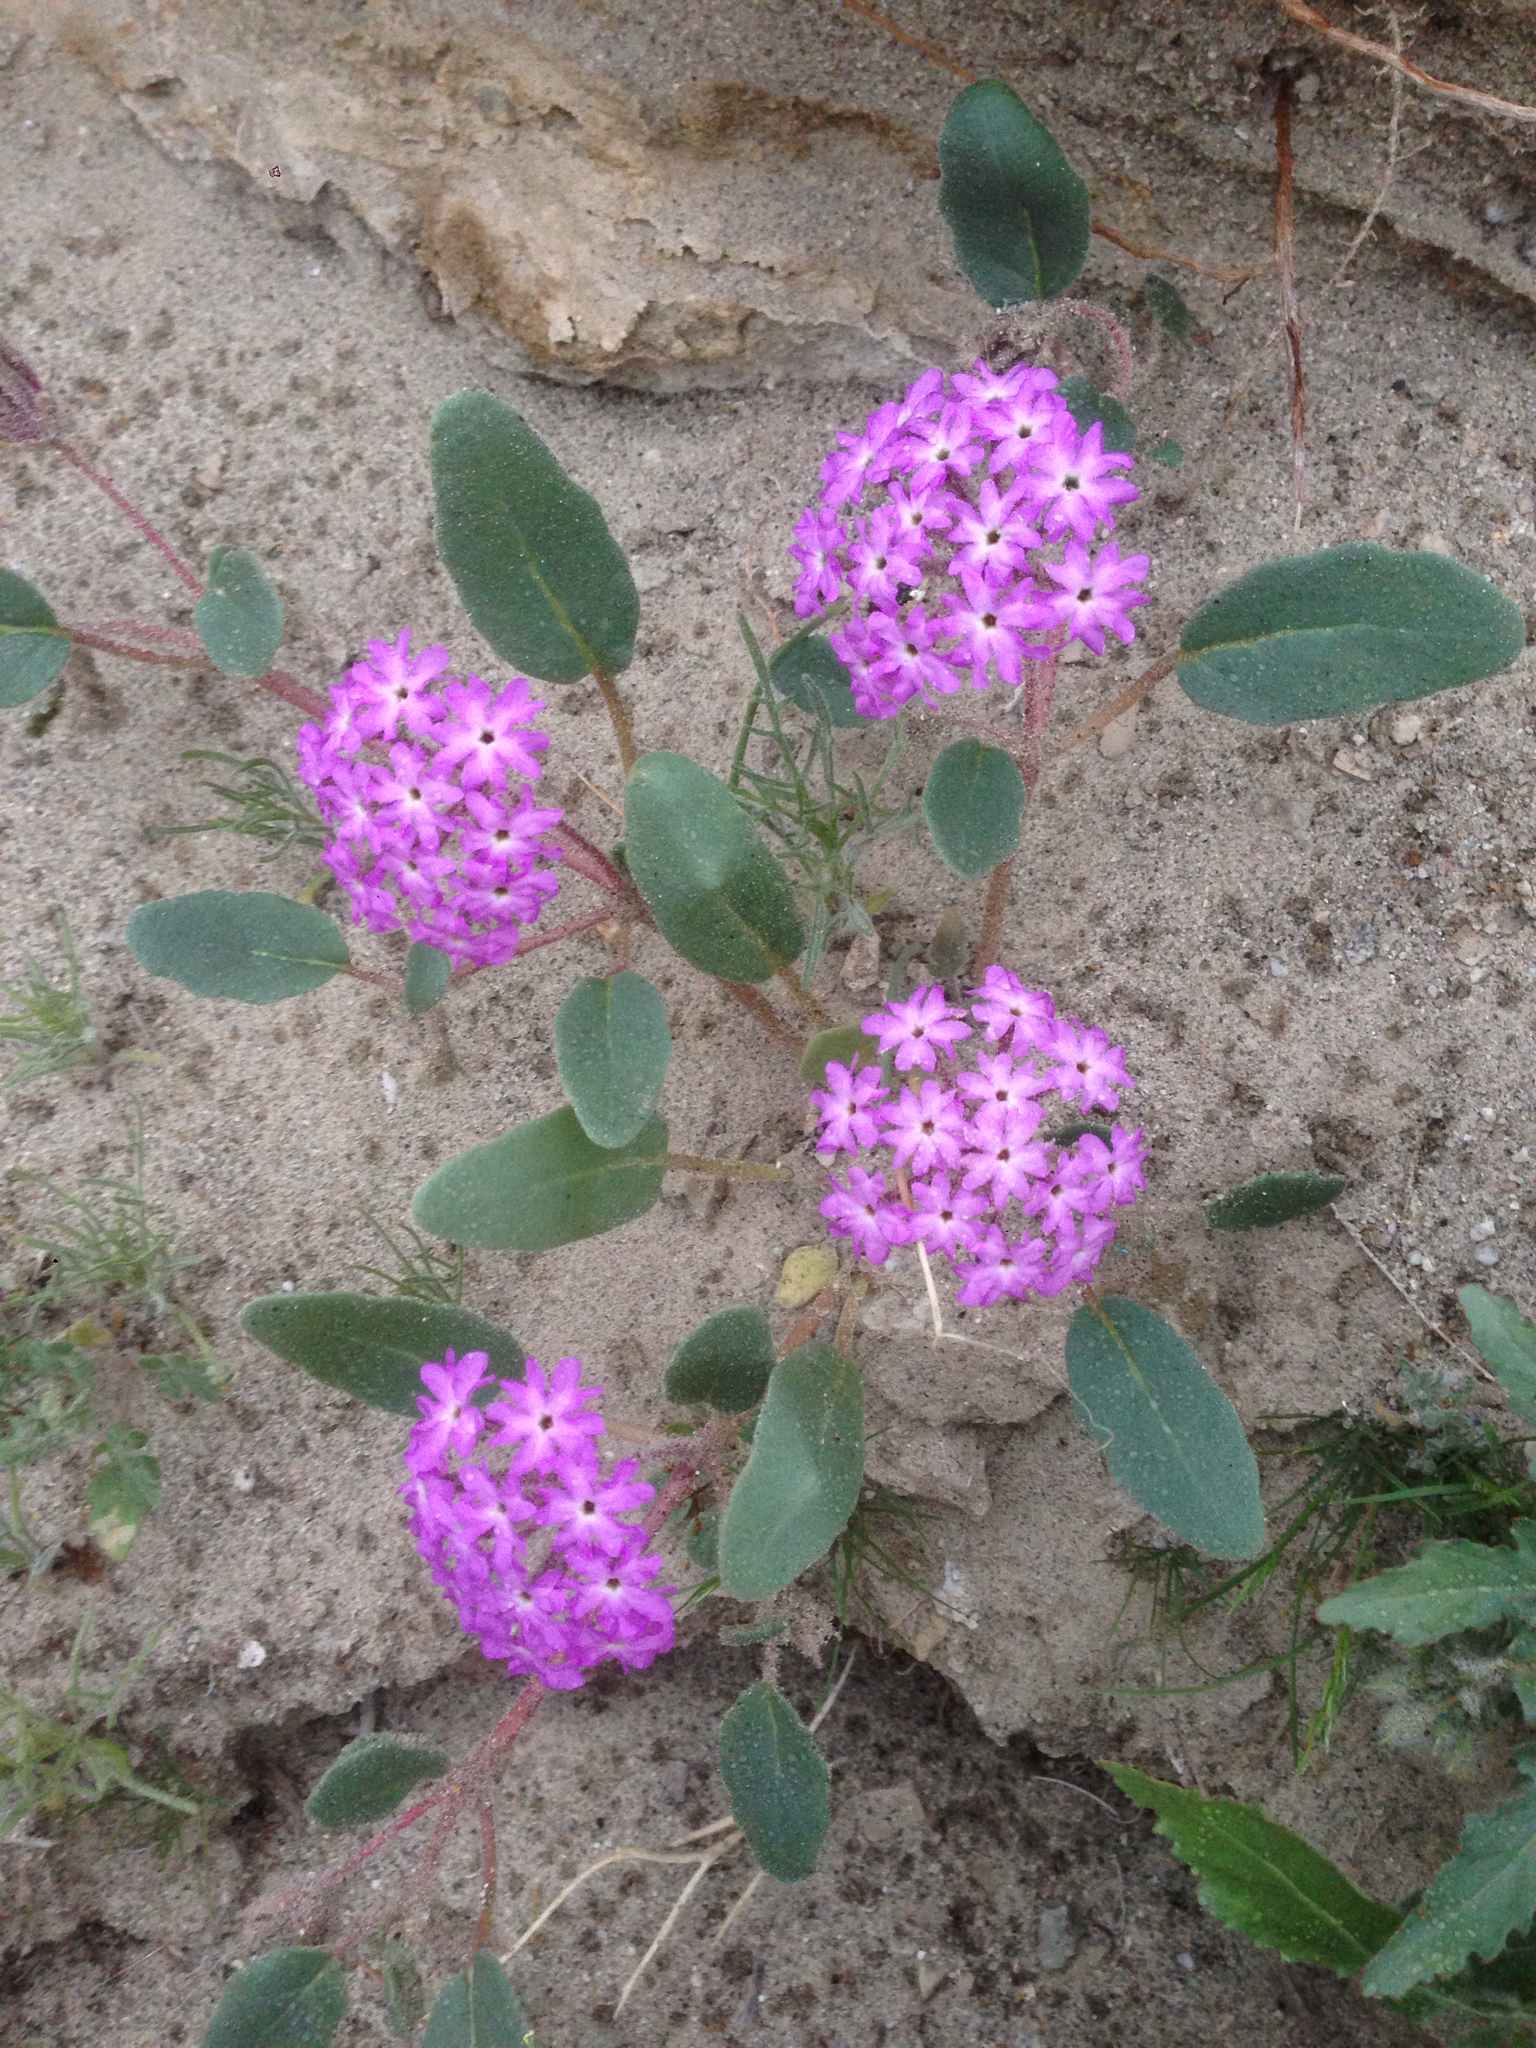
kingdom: Plantae
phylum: Tracheophyta
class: Magnoliopsida
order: Caryophyllales
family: Nyctaginaceae
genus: Abronia
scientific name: Abronia villosa
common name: Desert sand-verbena
